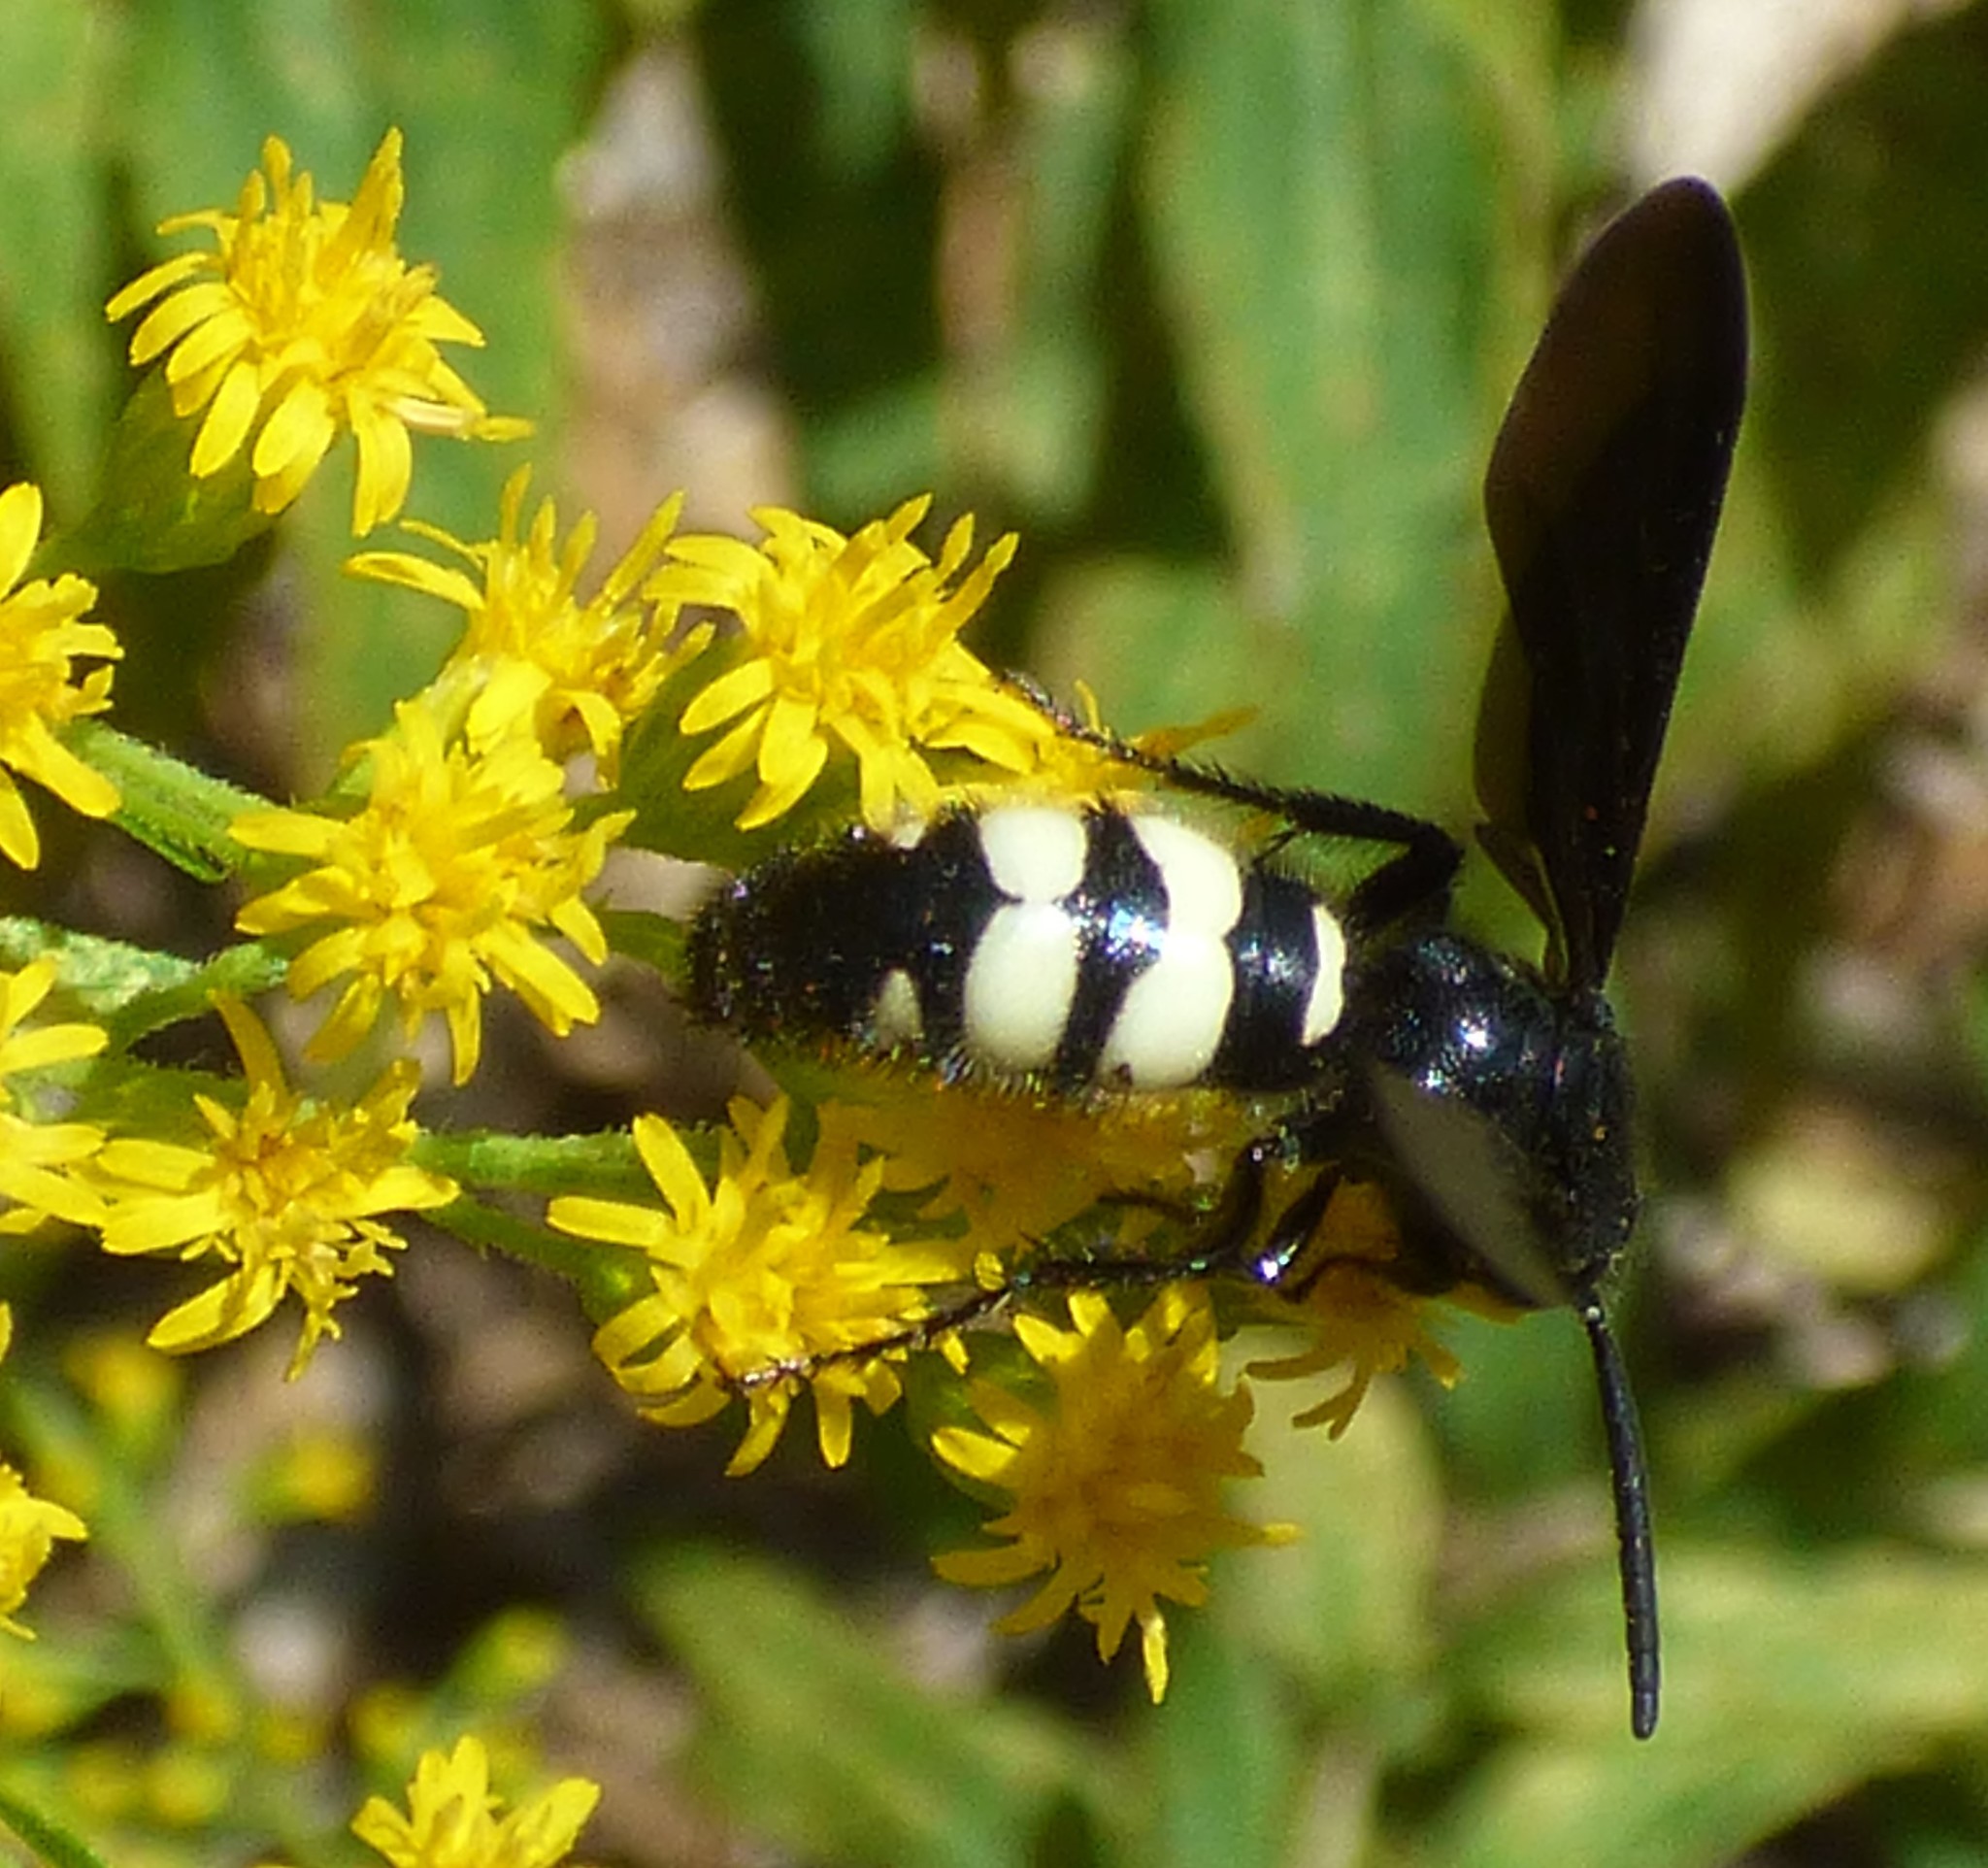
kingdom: Animalia
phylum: Arthropoda
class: Insecta
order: Hymenoptera
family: Scoliidae
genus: Scolia
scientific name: Scolia bicincta
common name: Double-banded scoliid wasp
